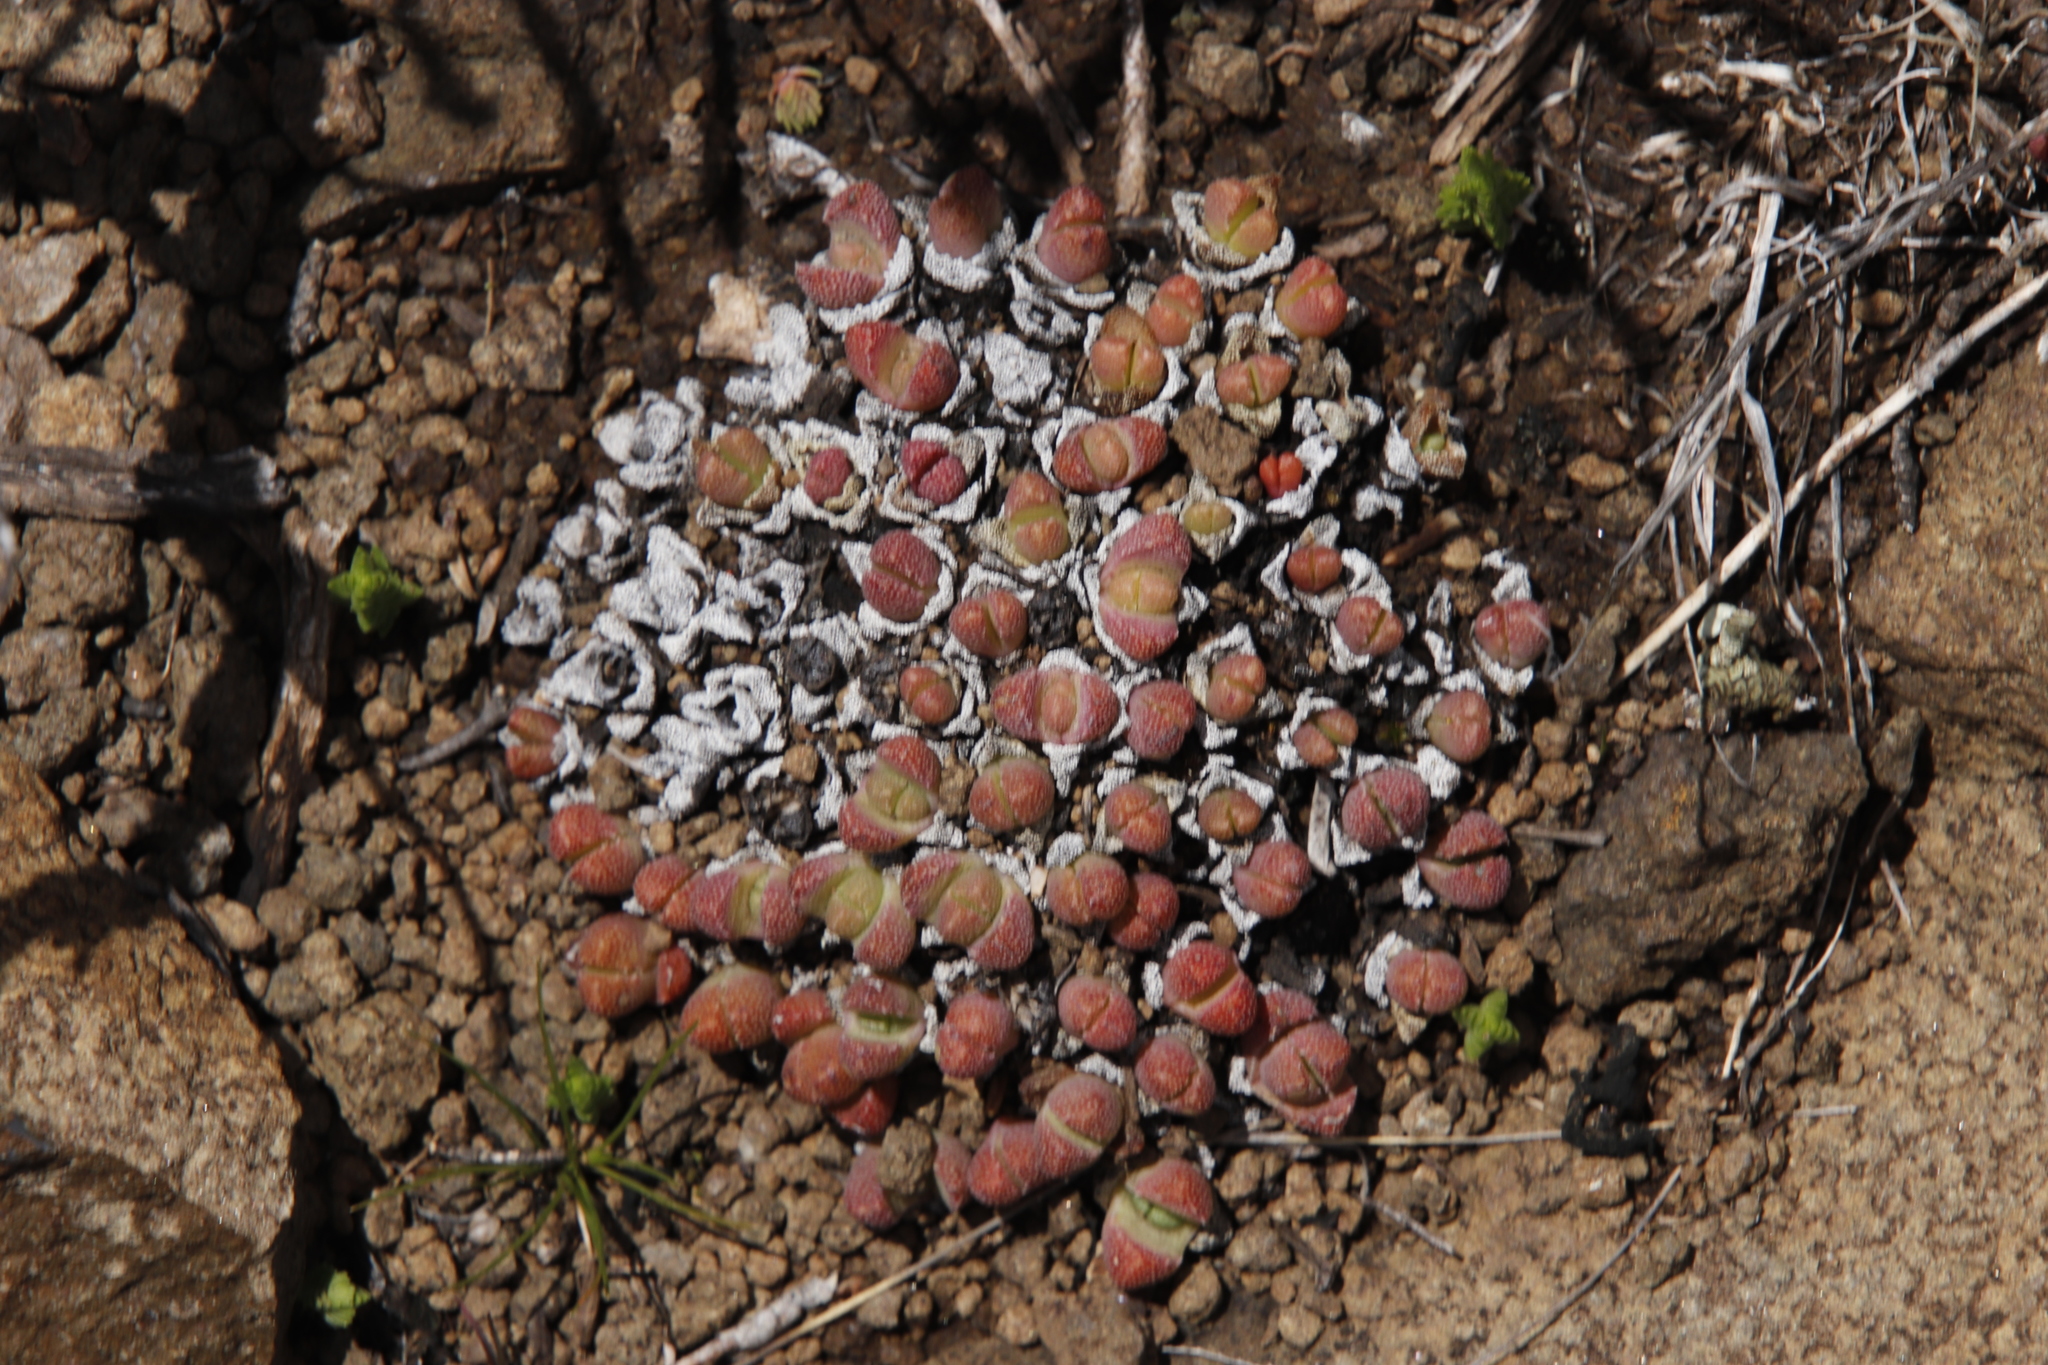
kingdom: Plantae
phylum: Tracheophyta
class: Magnoliopsida
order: Caryophyllales
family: Aizoaceae
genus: Stomatium
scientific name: Stomatium gerstneri
